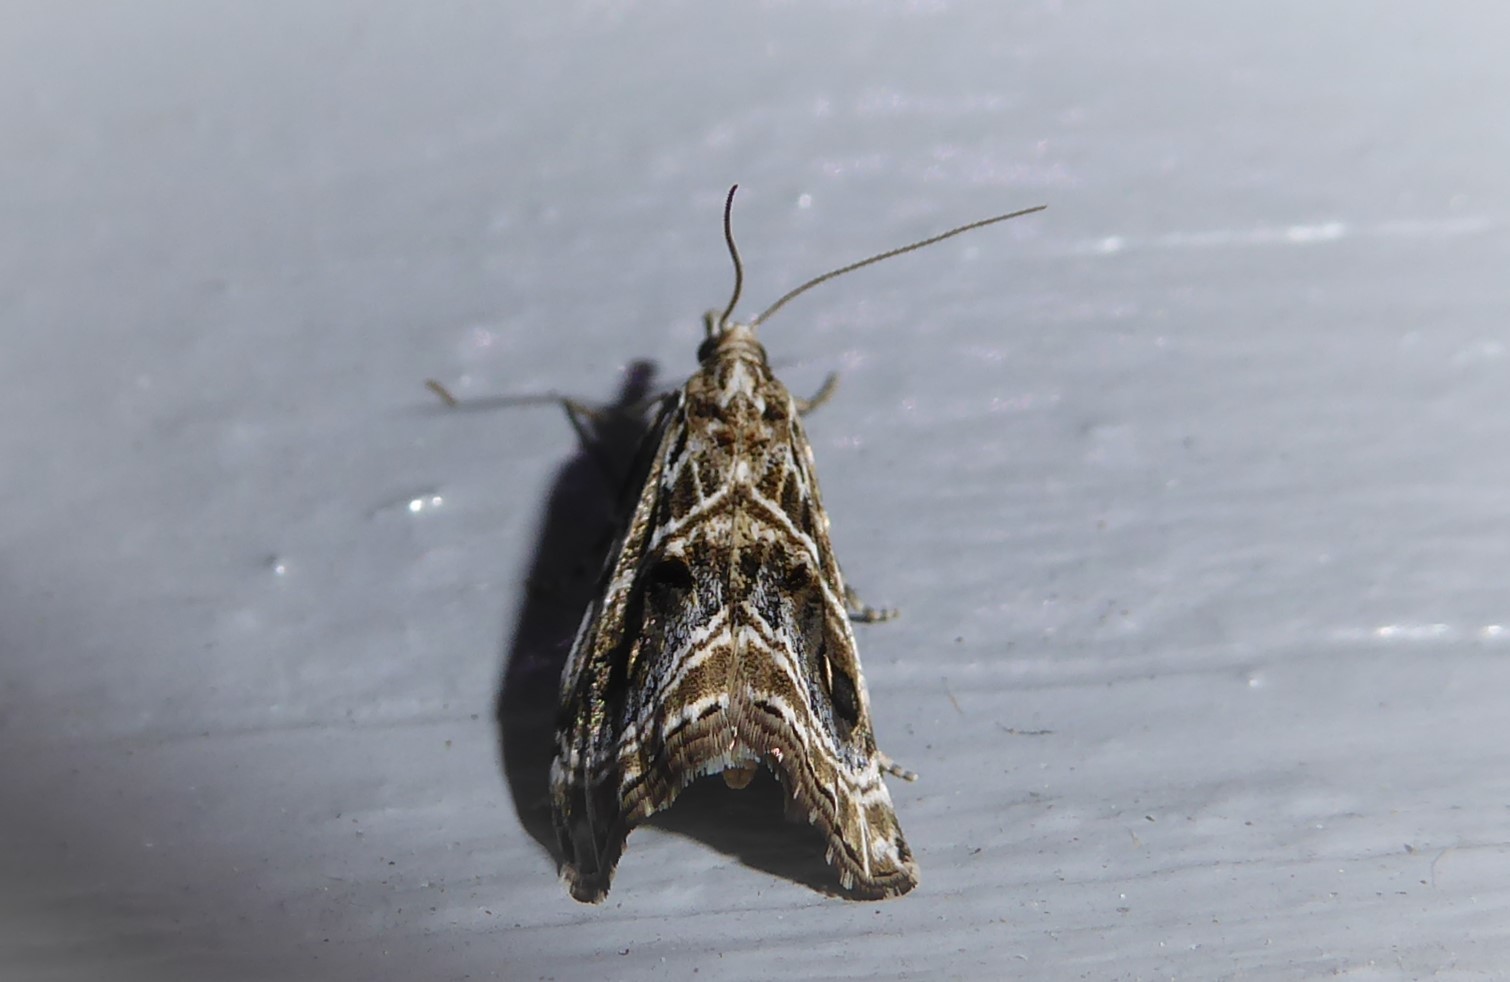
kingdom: Animalia
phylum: Arthropoda
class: Insecta
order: Lepidoptera
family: Crambidae
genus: Gadira
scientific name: Gadira acerella
